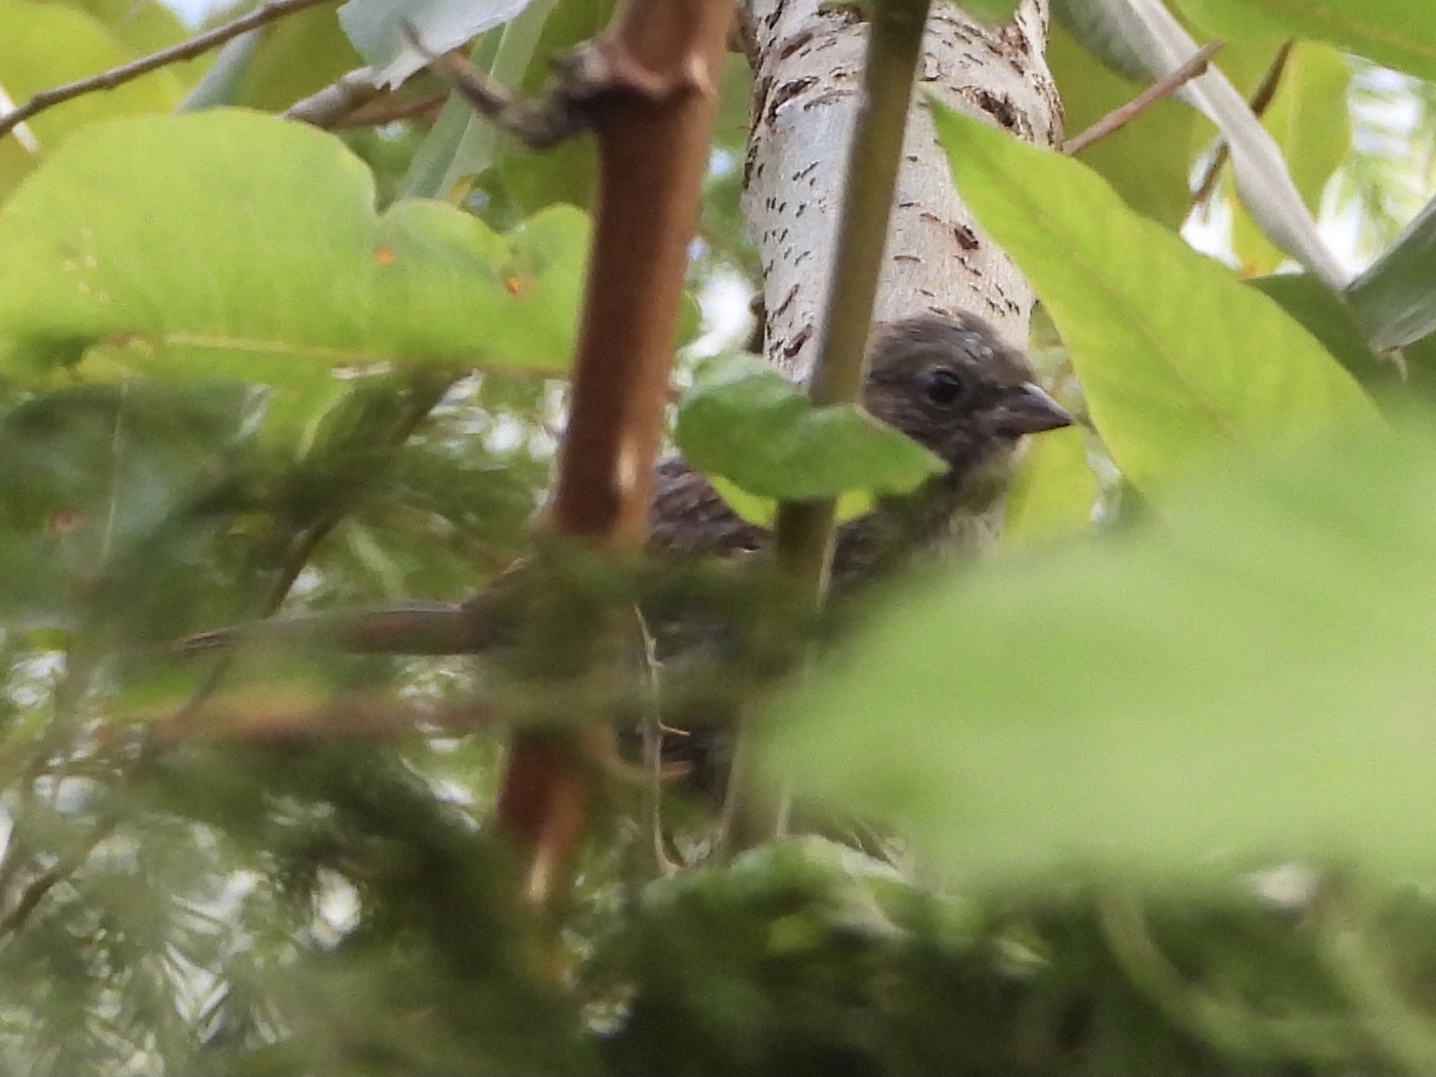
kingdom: Animalia
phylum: Chordata
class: Aves
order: Passeriformes
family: Passerellidae
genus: Melospiza
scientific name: Melospiza melodia
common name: Song sparrow
